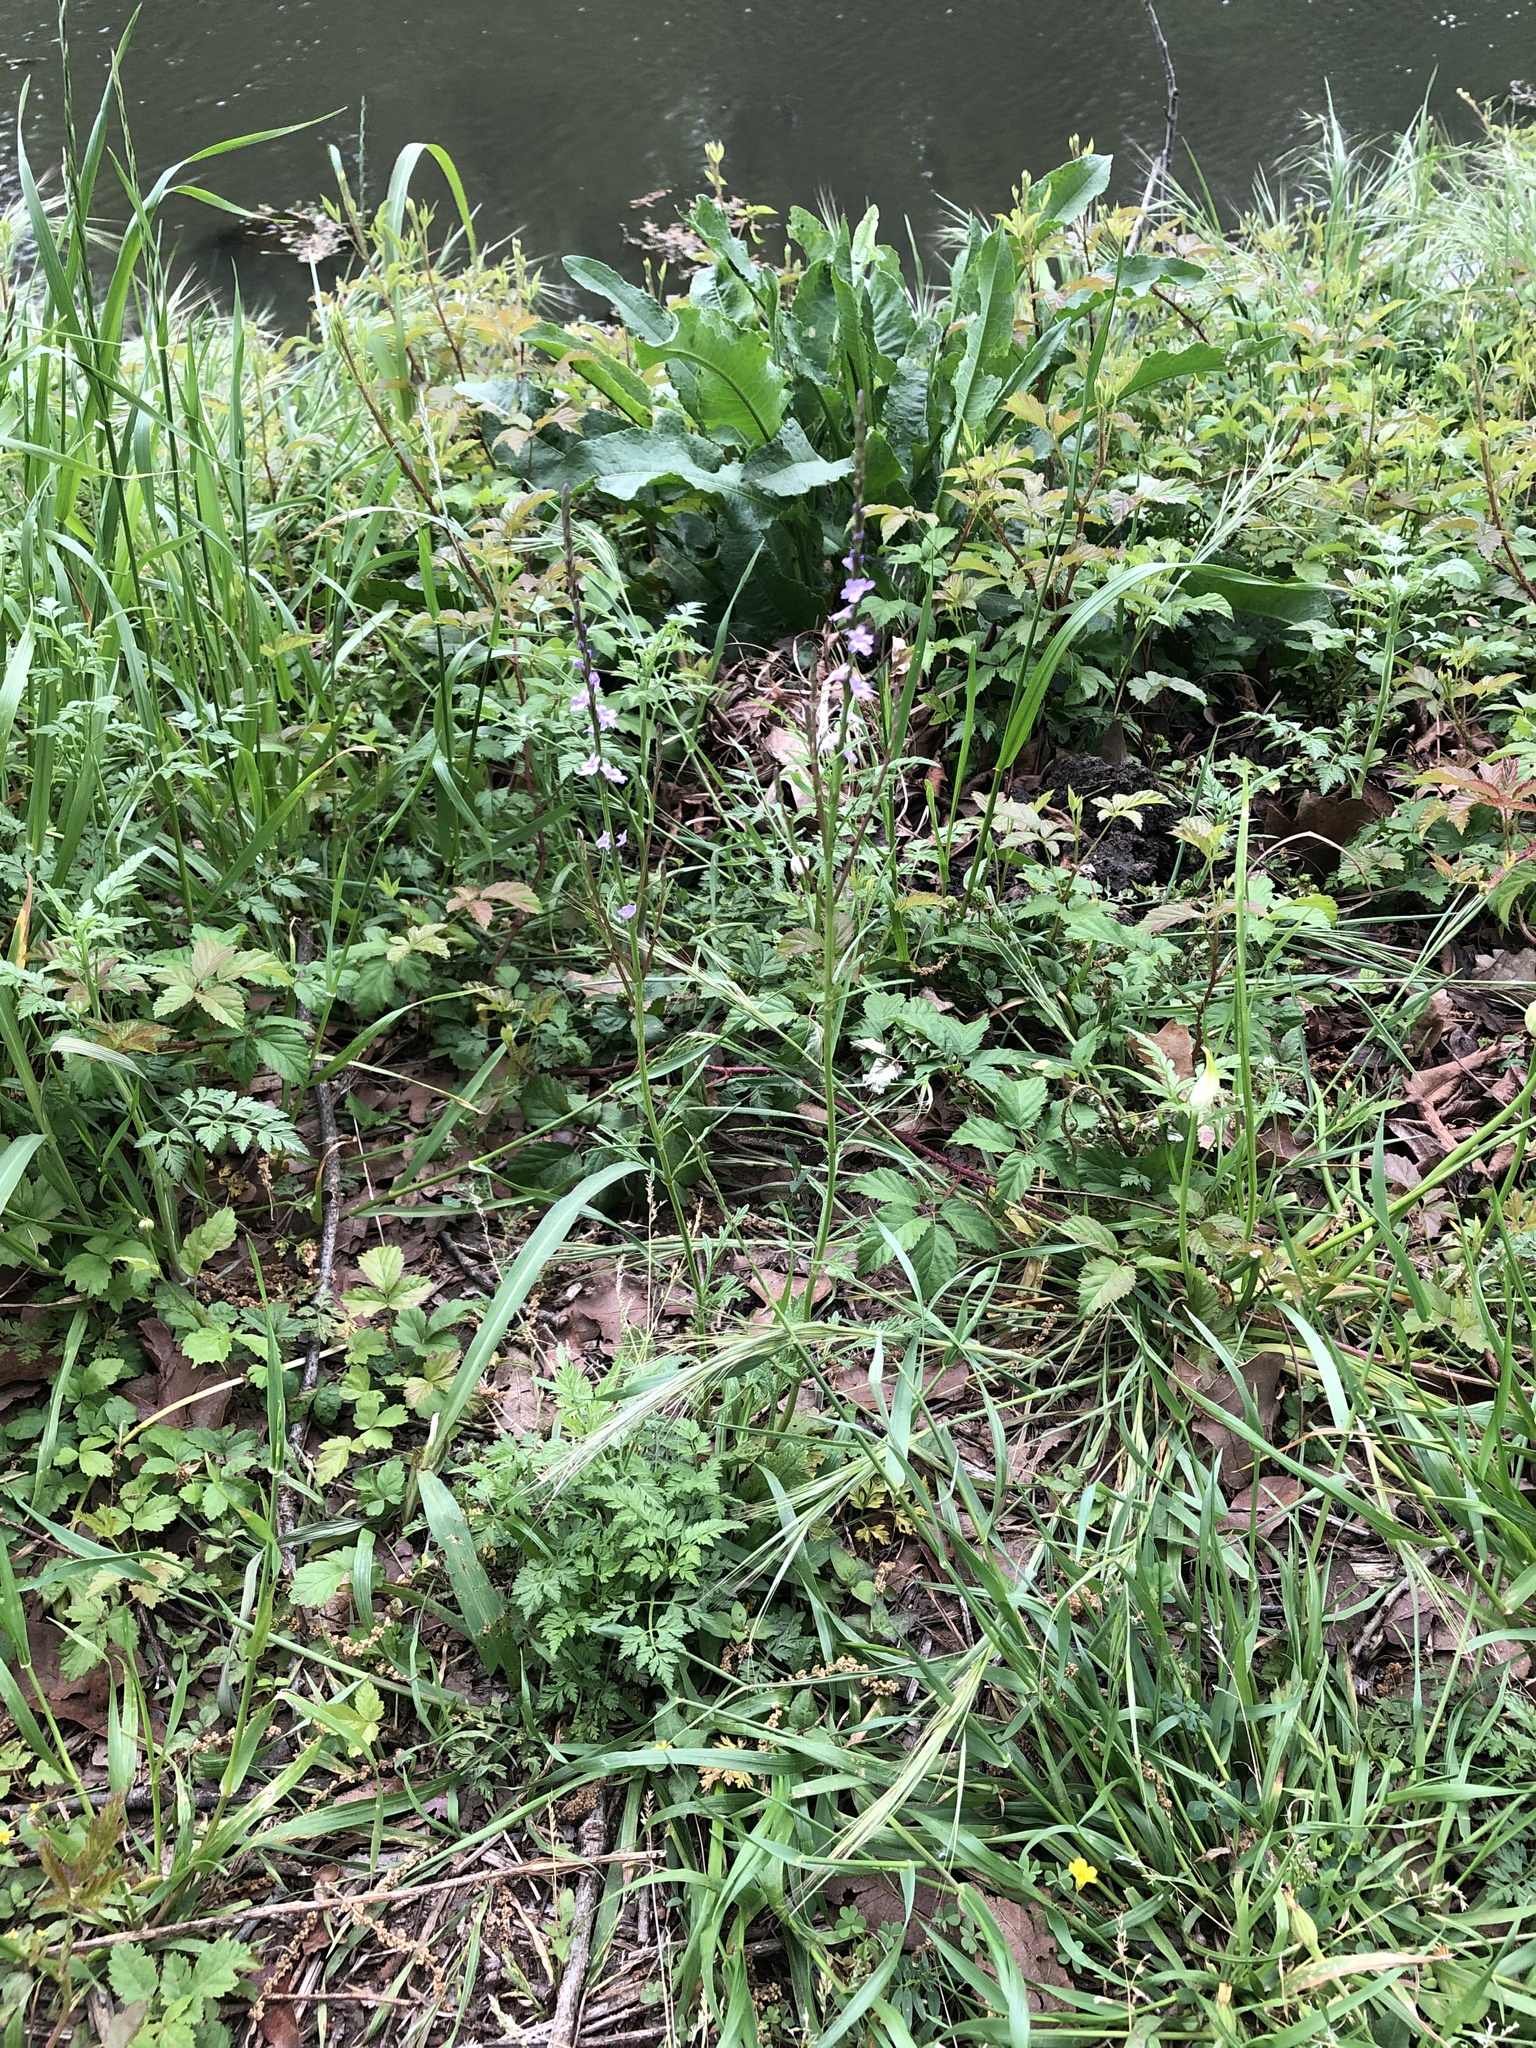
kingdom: Plantae
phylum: Tracheophyta
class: Magnoliopsida
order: Lamiales
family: Verbenaceae
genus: Verbena
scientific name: Verbena halei
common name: Texas vervain
